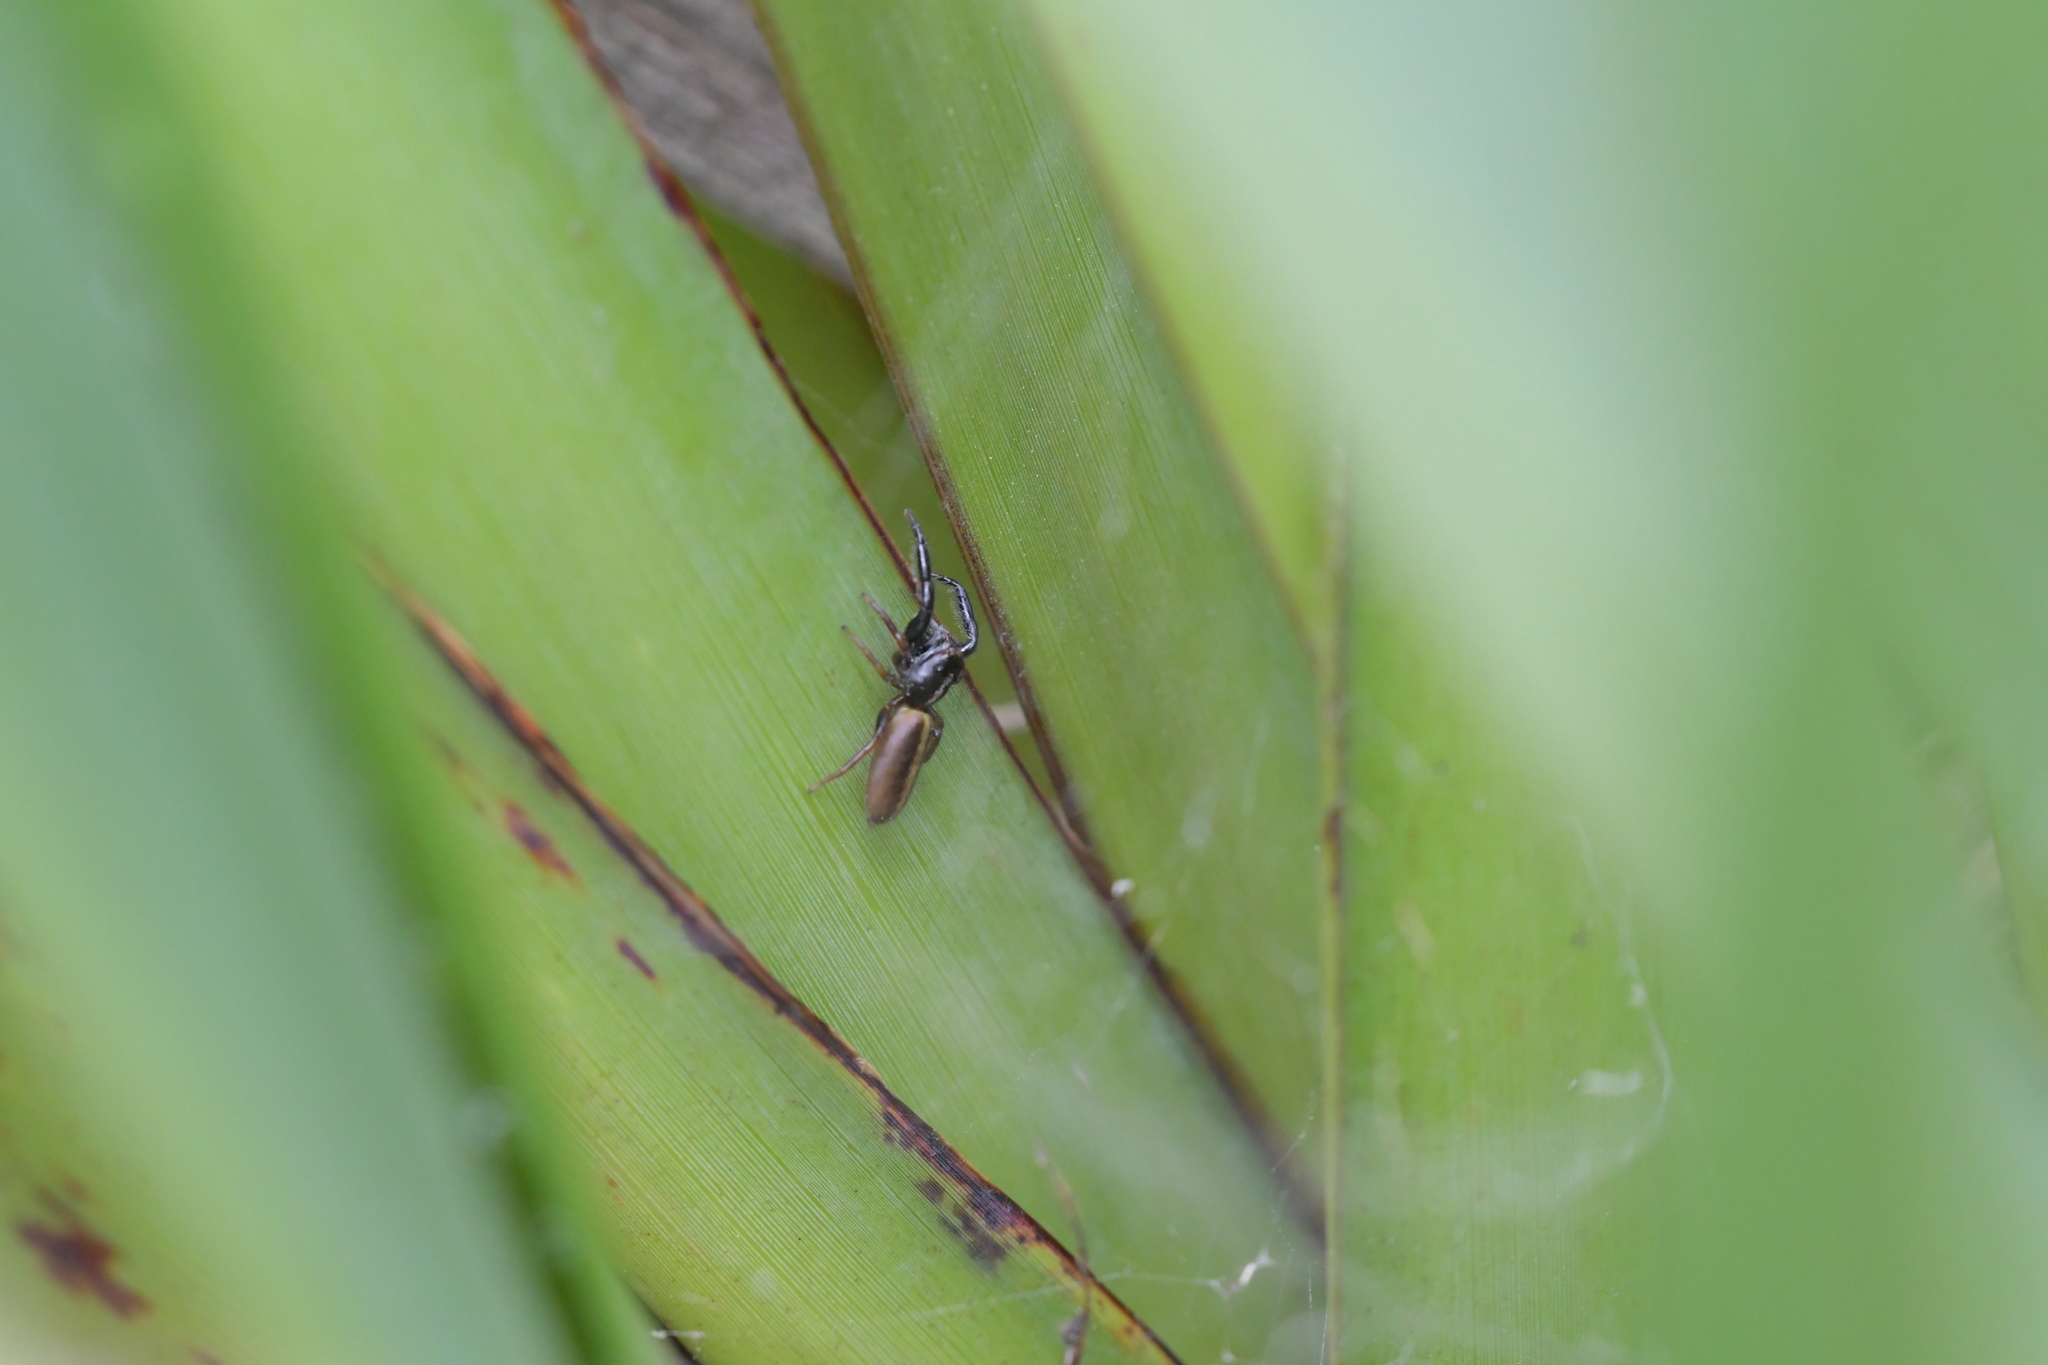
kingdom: Animalia
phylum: Arthropoda
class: Arachnida
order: Araneae
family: Salticidae
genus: Trite
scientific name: Trite planiceps
